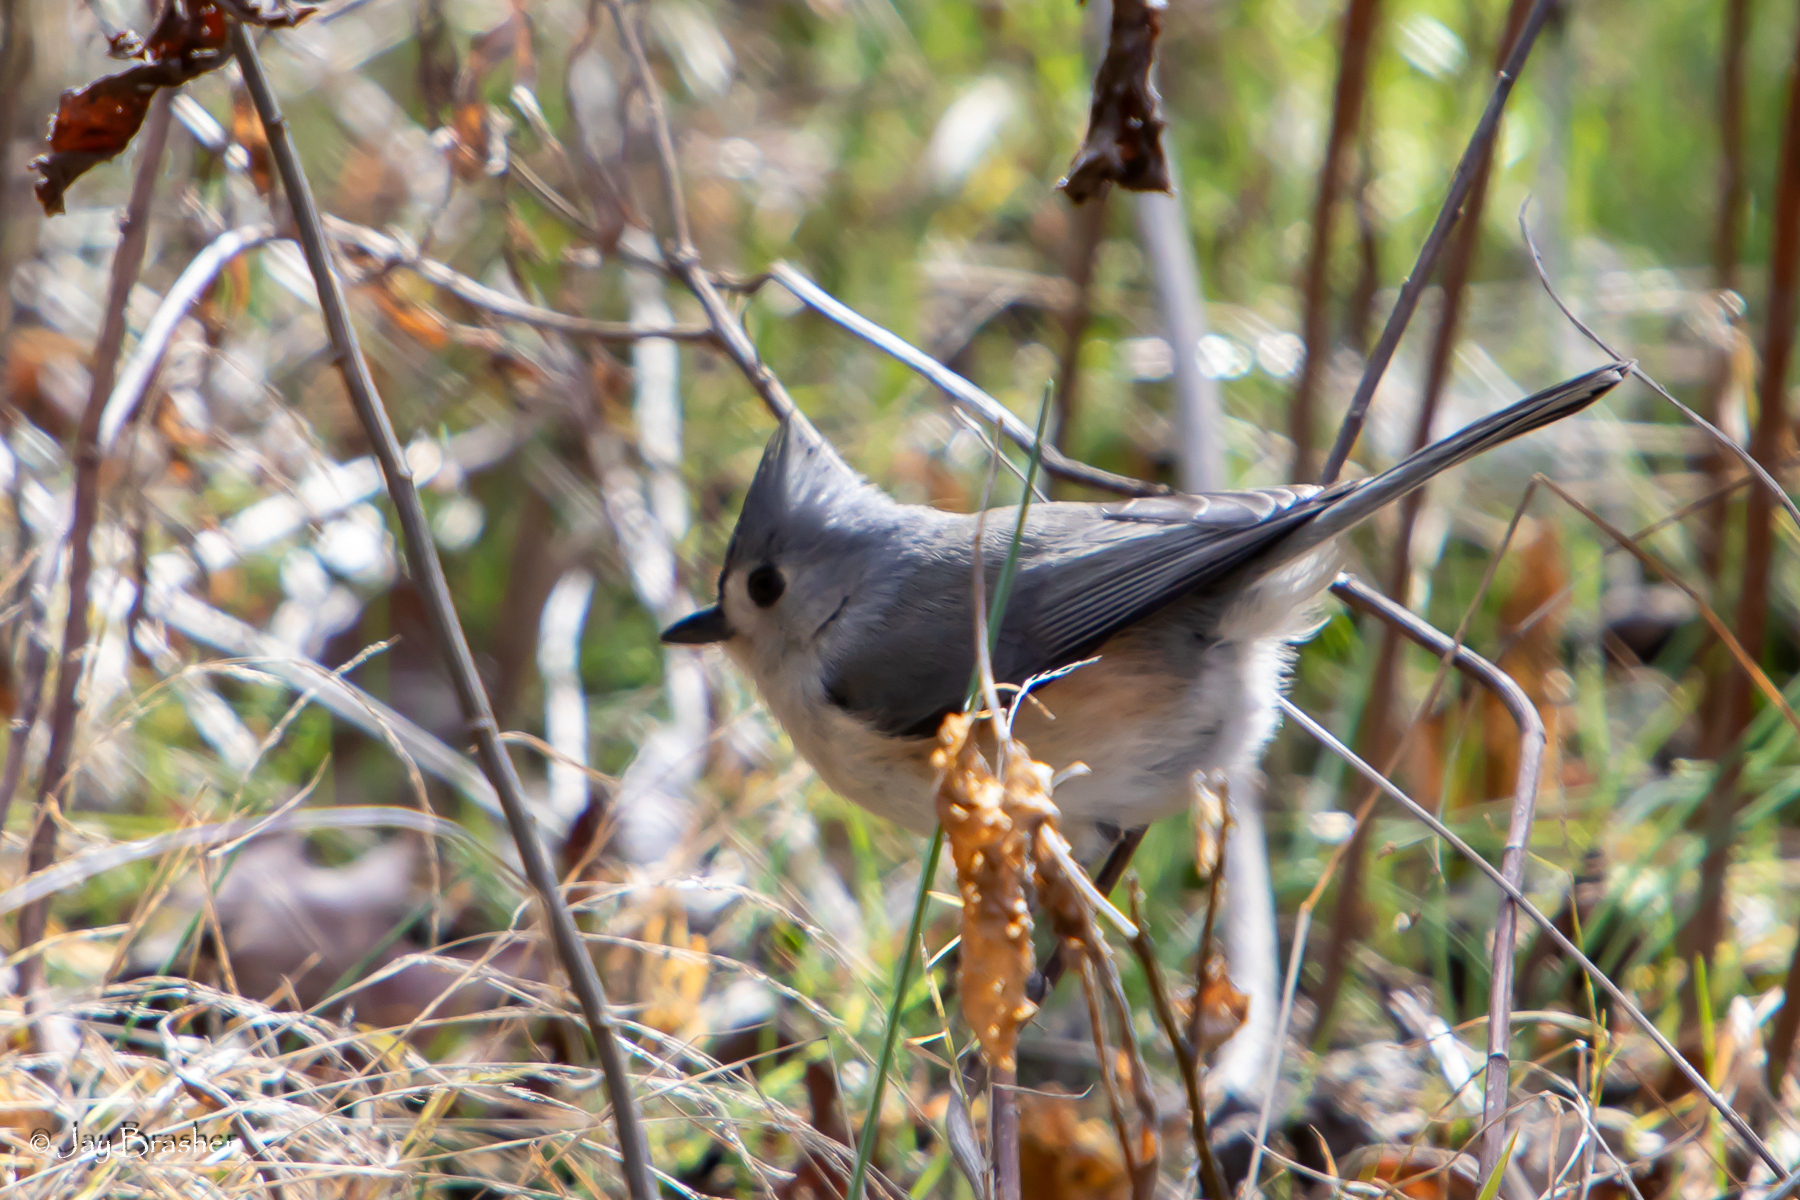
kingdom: Animalia
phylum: Chordata
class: Aves
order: Passeriformes
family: Paridae
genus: Baeolophus
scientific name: Baeolophus bicolor
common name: Tufted titmouse
